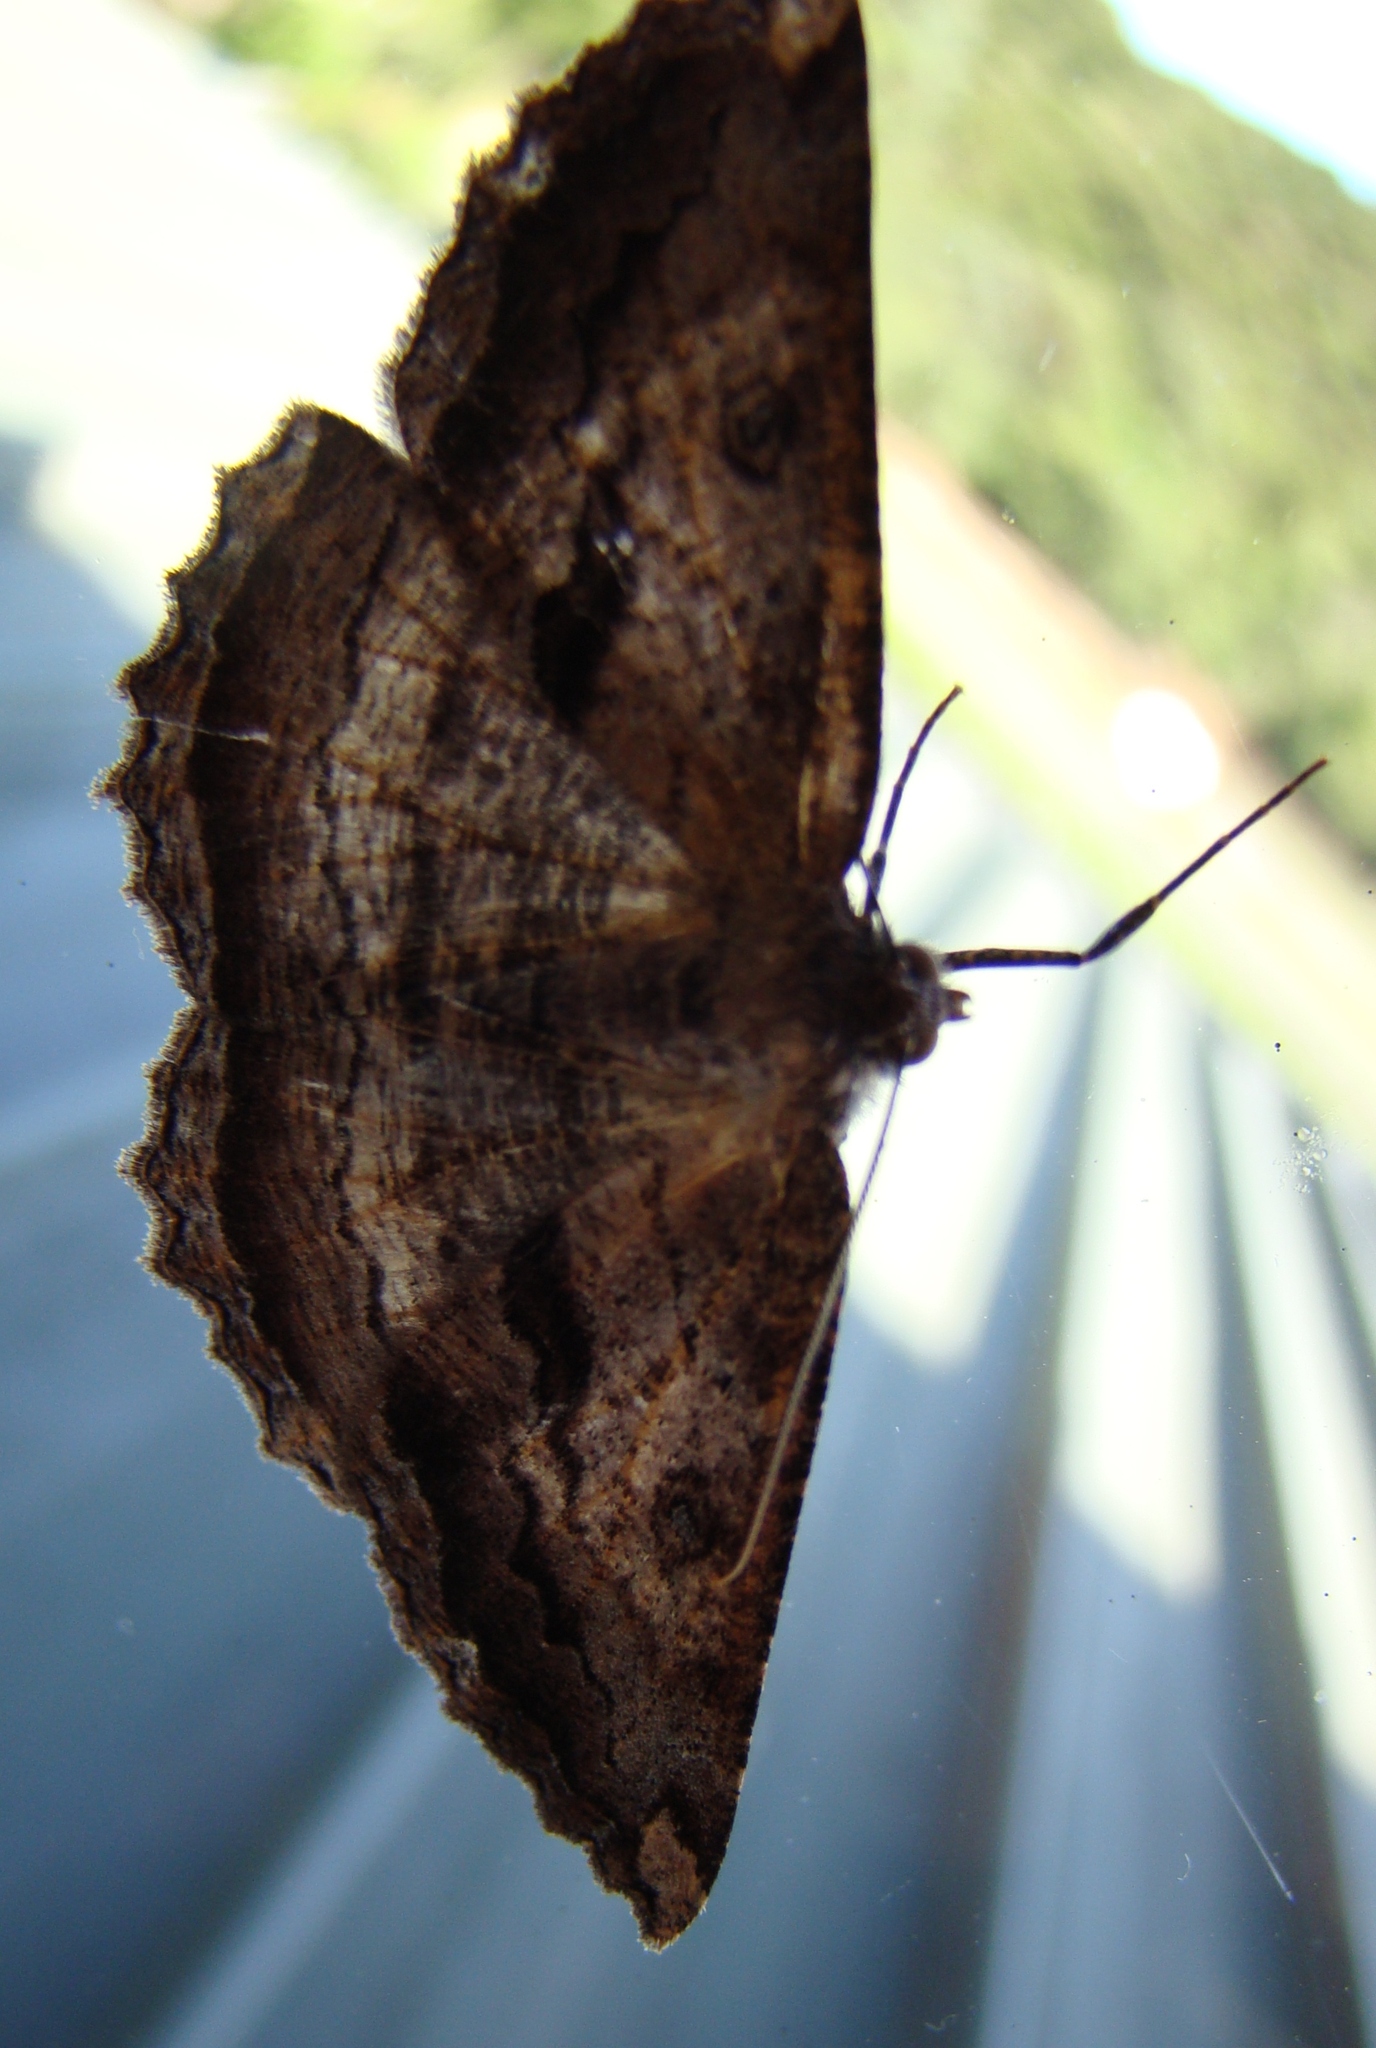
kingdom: Animalia
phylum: Arthropoda
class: Insecta
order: Lepidoptera
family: Geometridae
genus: Gellonia
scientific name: Gellonia dejectaria
